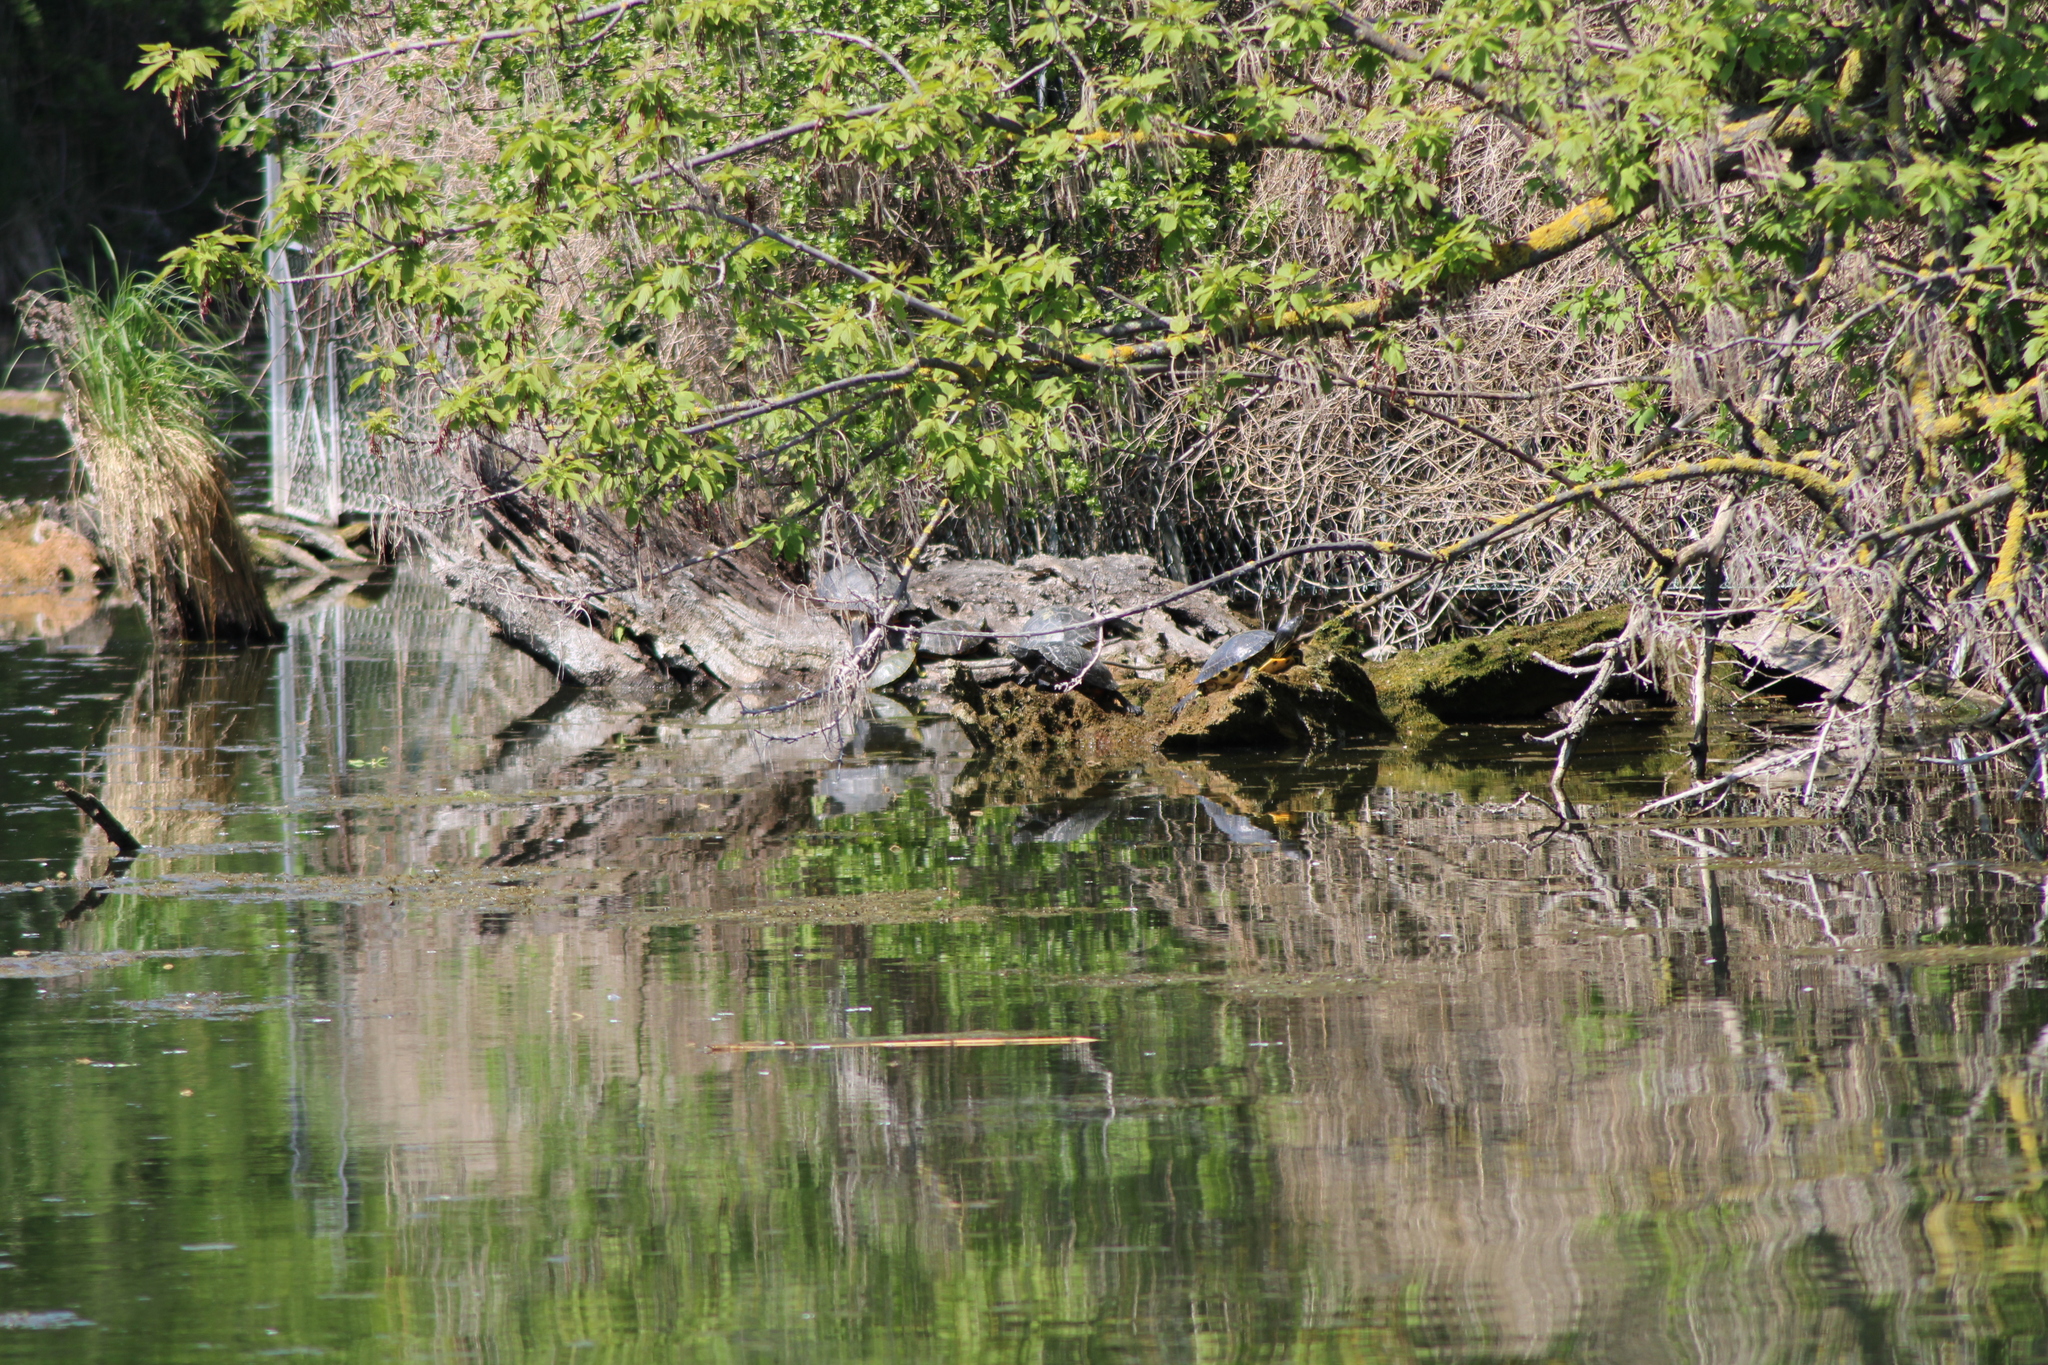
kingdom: Animalia
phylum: Chordata
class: Testudines
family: Emydidae
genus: Trachemys
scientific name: Trachemys scripta
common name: Slider
